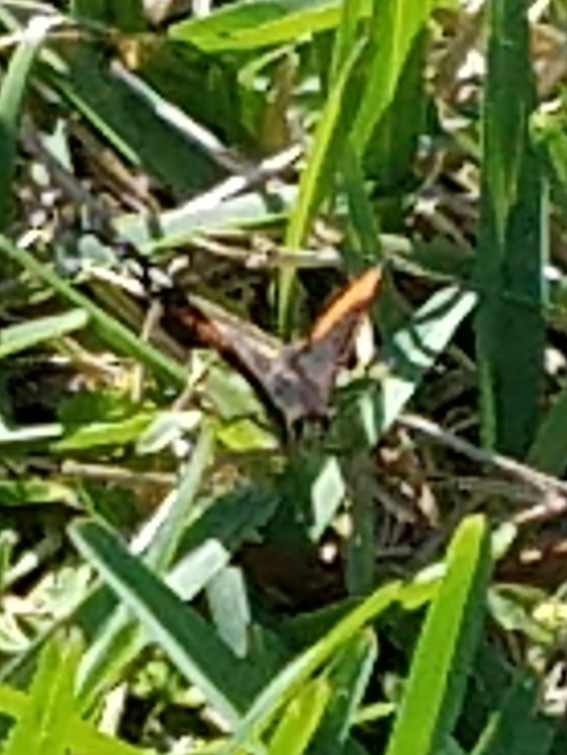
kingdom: Animalia
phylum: Arthropoda
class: Insecta
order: Lepidoptera
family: Nymphalidae
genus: Vanessa
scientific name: Vanessa atalanta
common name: Red admiral
